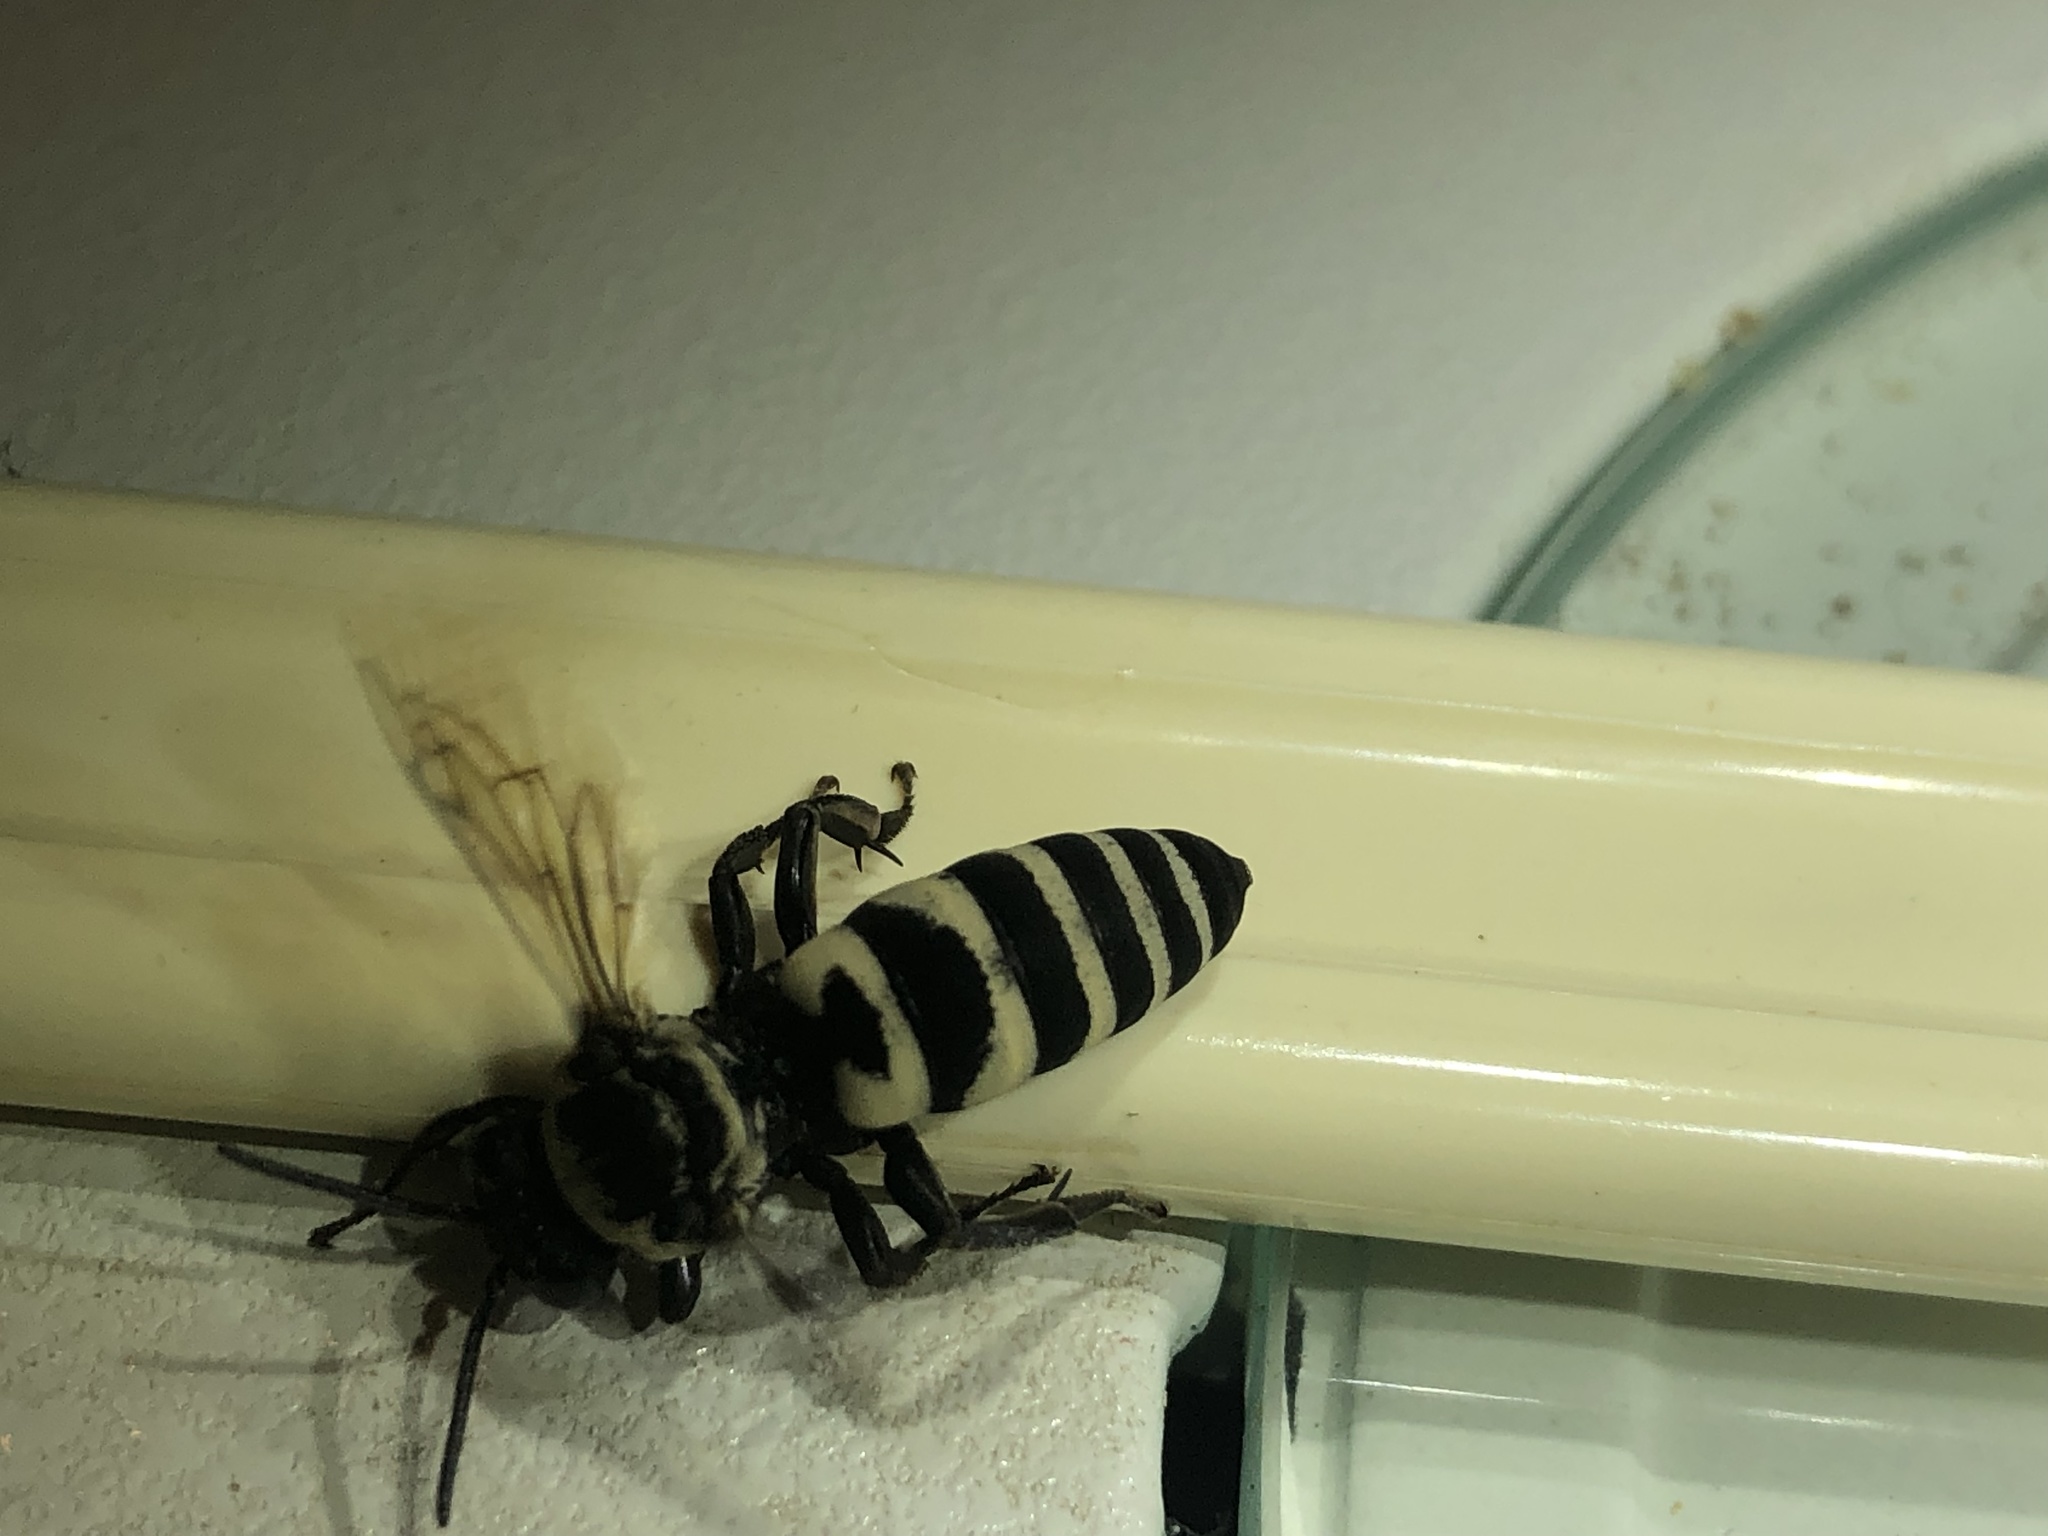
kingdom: Animalia
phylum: Arthropoda
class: Insecta
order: Hymenoptera
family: Apidae
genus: Triepeolus
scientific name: Triepeolus concavus
